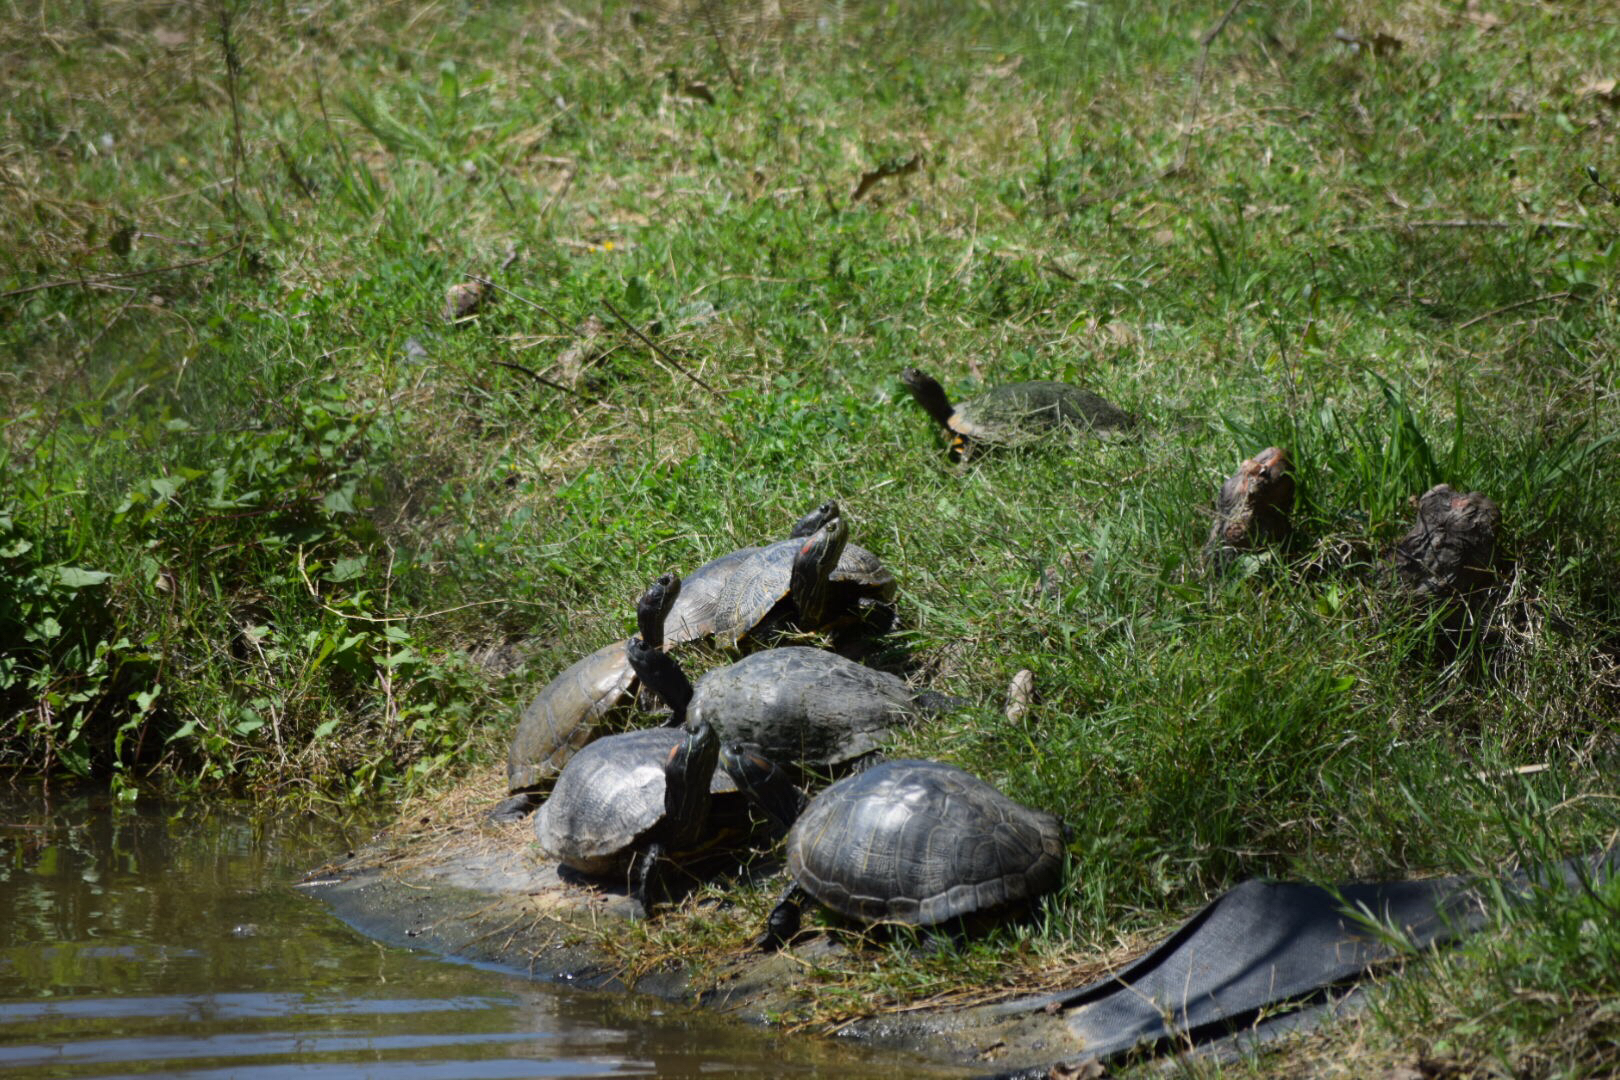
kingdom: Animalia
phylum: Chordata
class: Testudines
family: Emydidae
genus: Trachemys
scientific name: Trachemys scripta
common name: Slider
